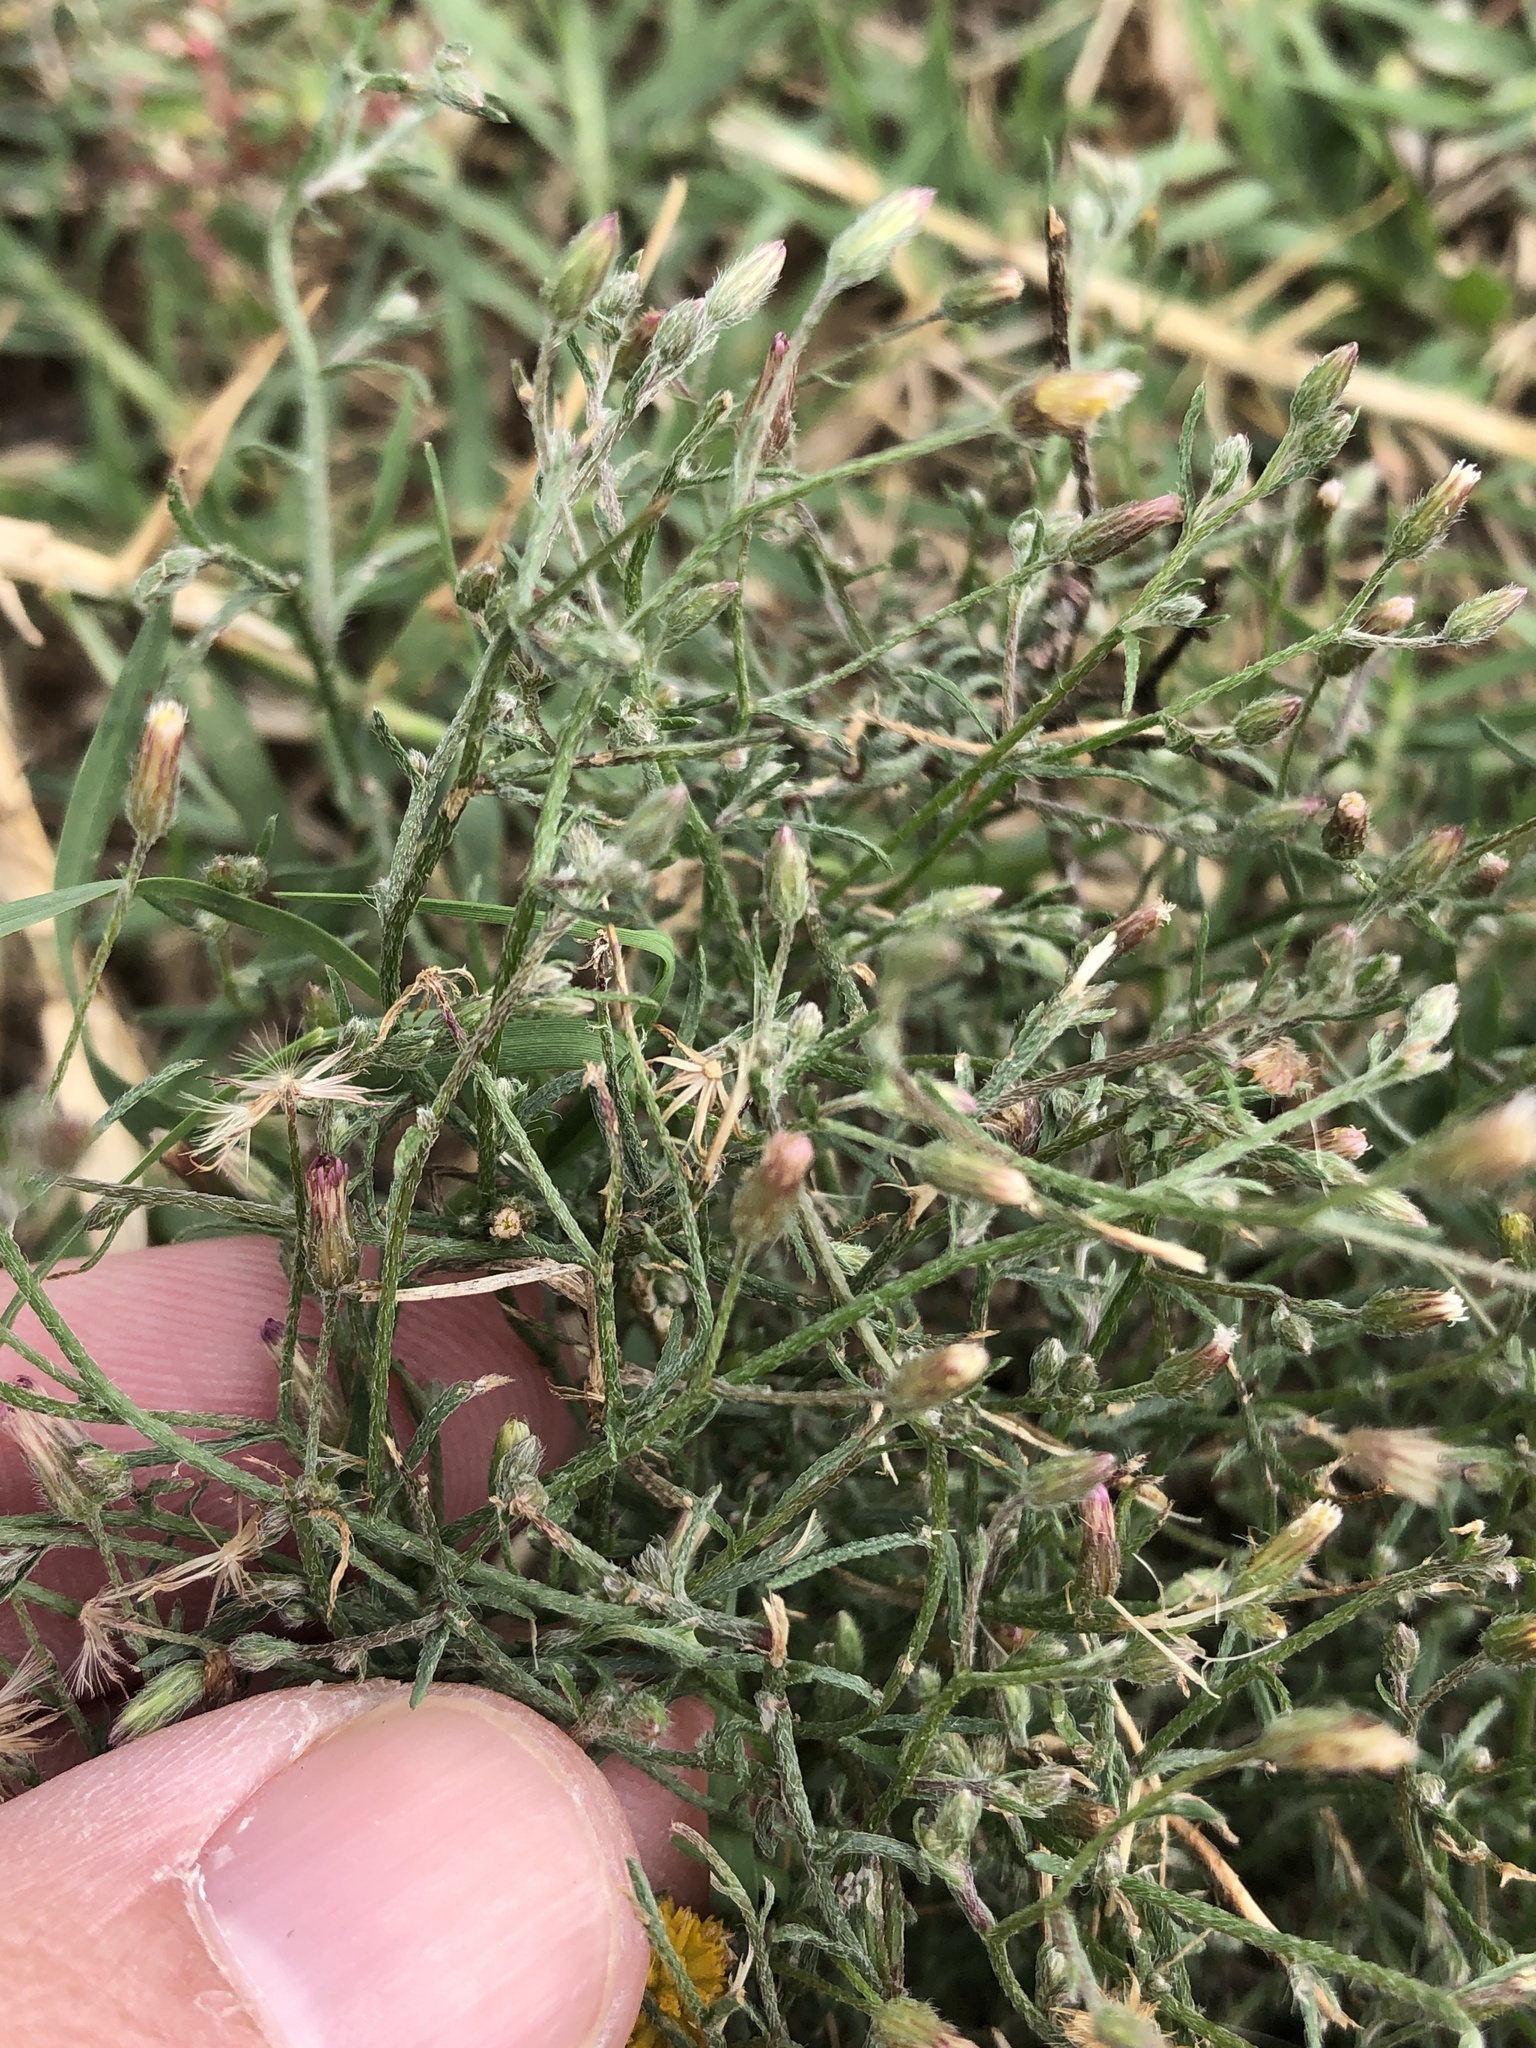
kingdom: Plantae
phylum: Tracheophyta
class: Magnoliopsida
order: Asterales
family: Asteraceae
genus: Erigeron
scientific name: Erigeron divaricatus
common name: Dwarf conyza
